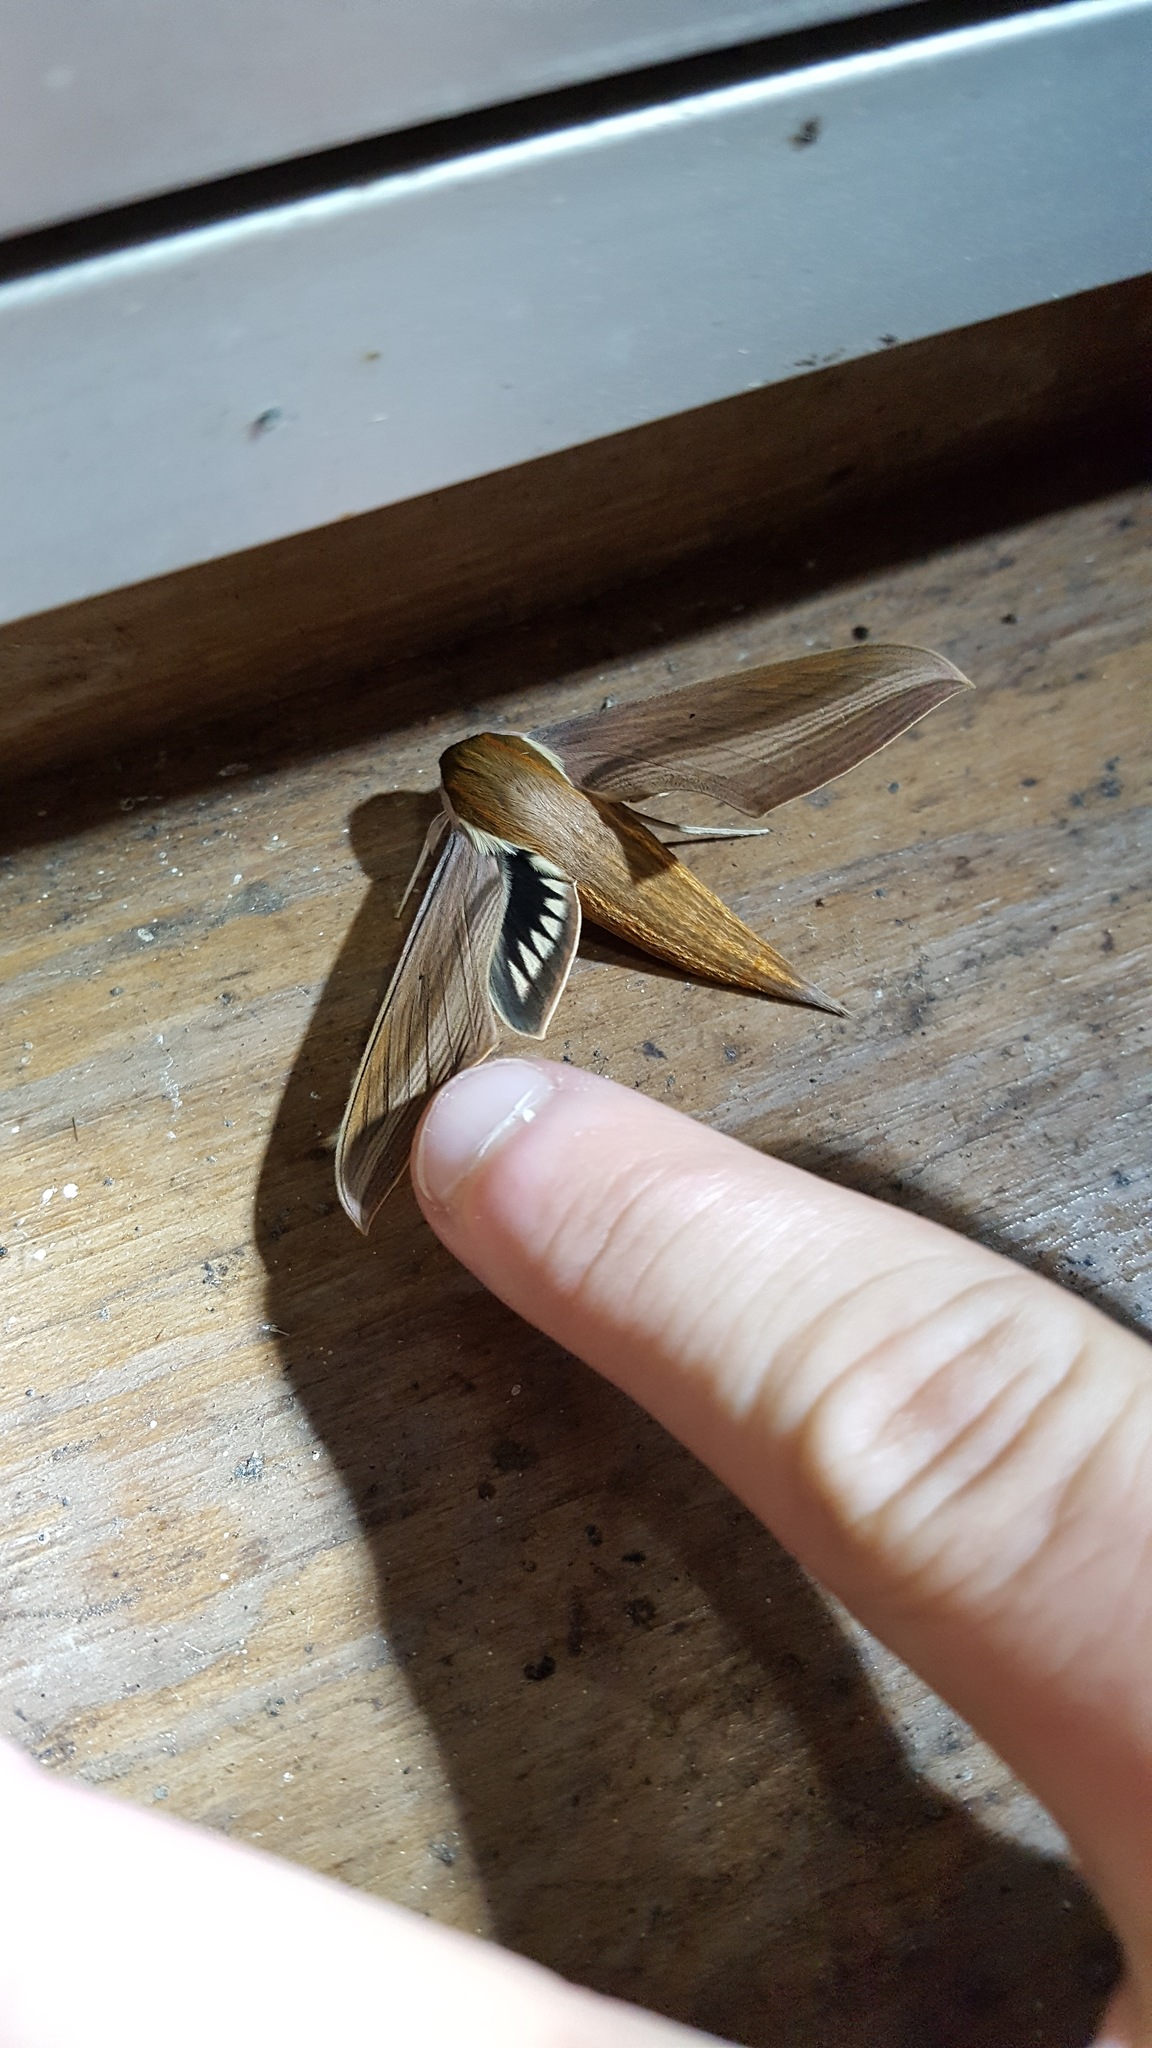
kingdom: Animalia
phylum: Arthropoda
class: Insecta
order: Lepidoptera
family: Sphingidae
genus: Xylophanes
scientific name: Xylophanes tersa
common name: Tersa sphinx
